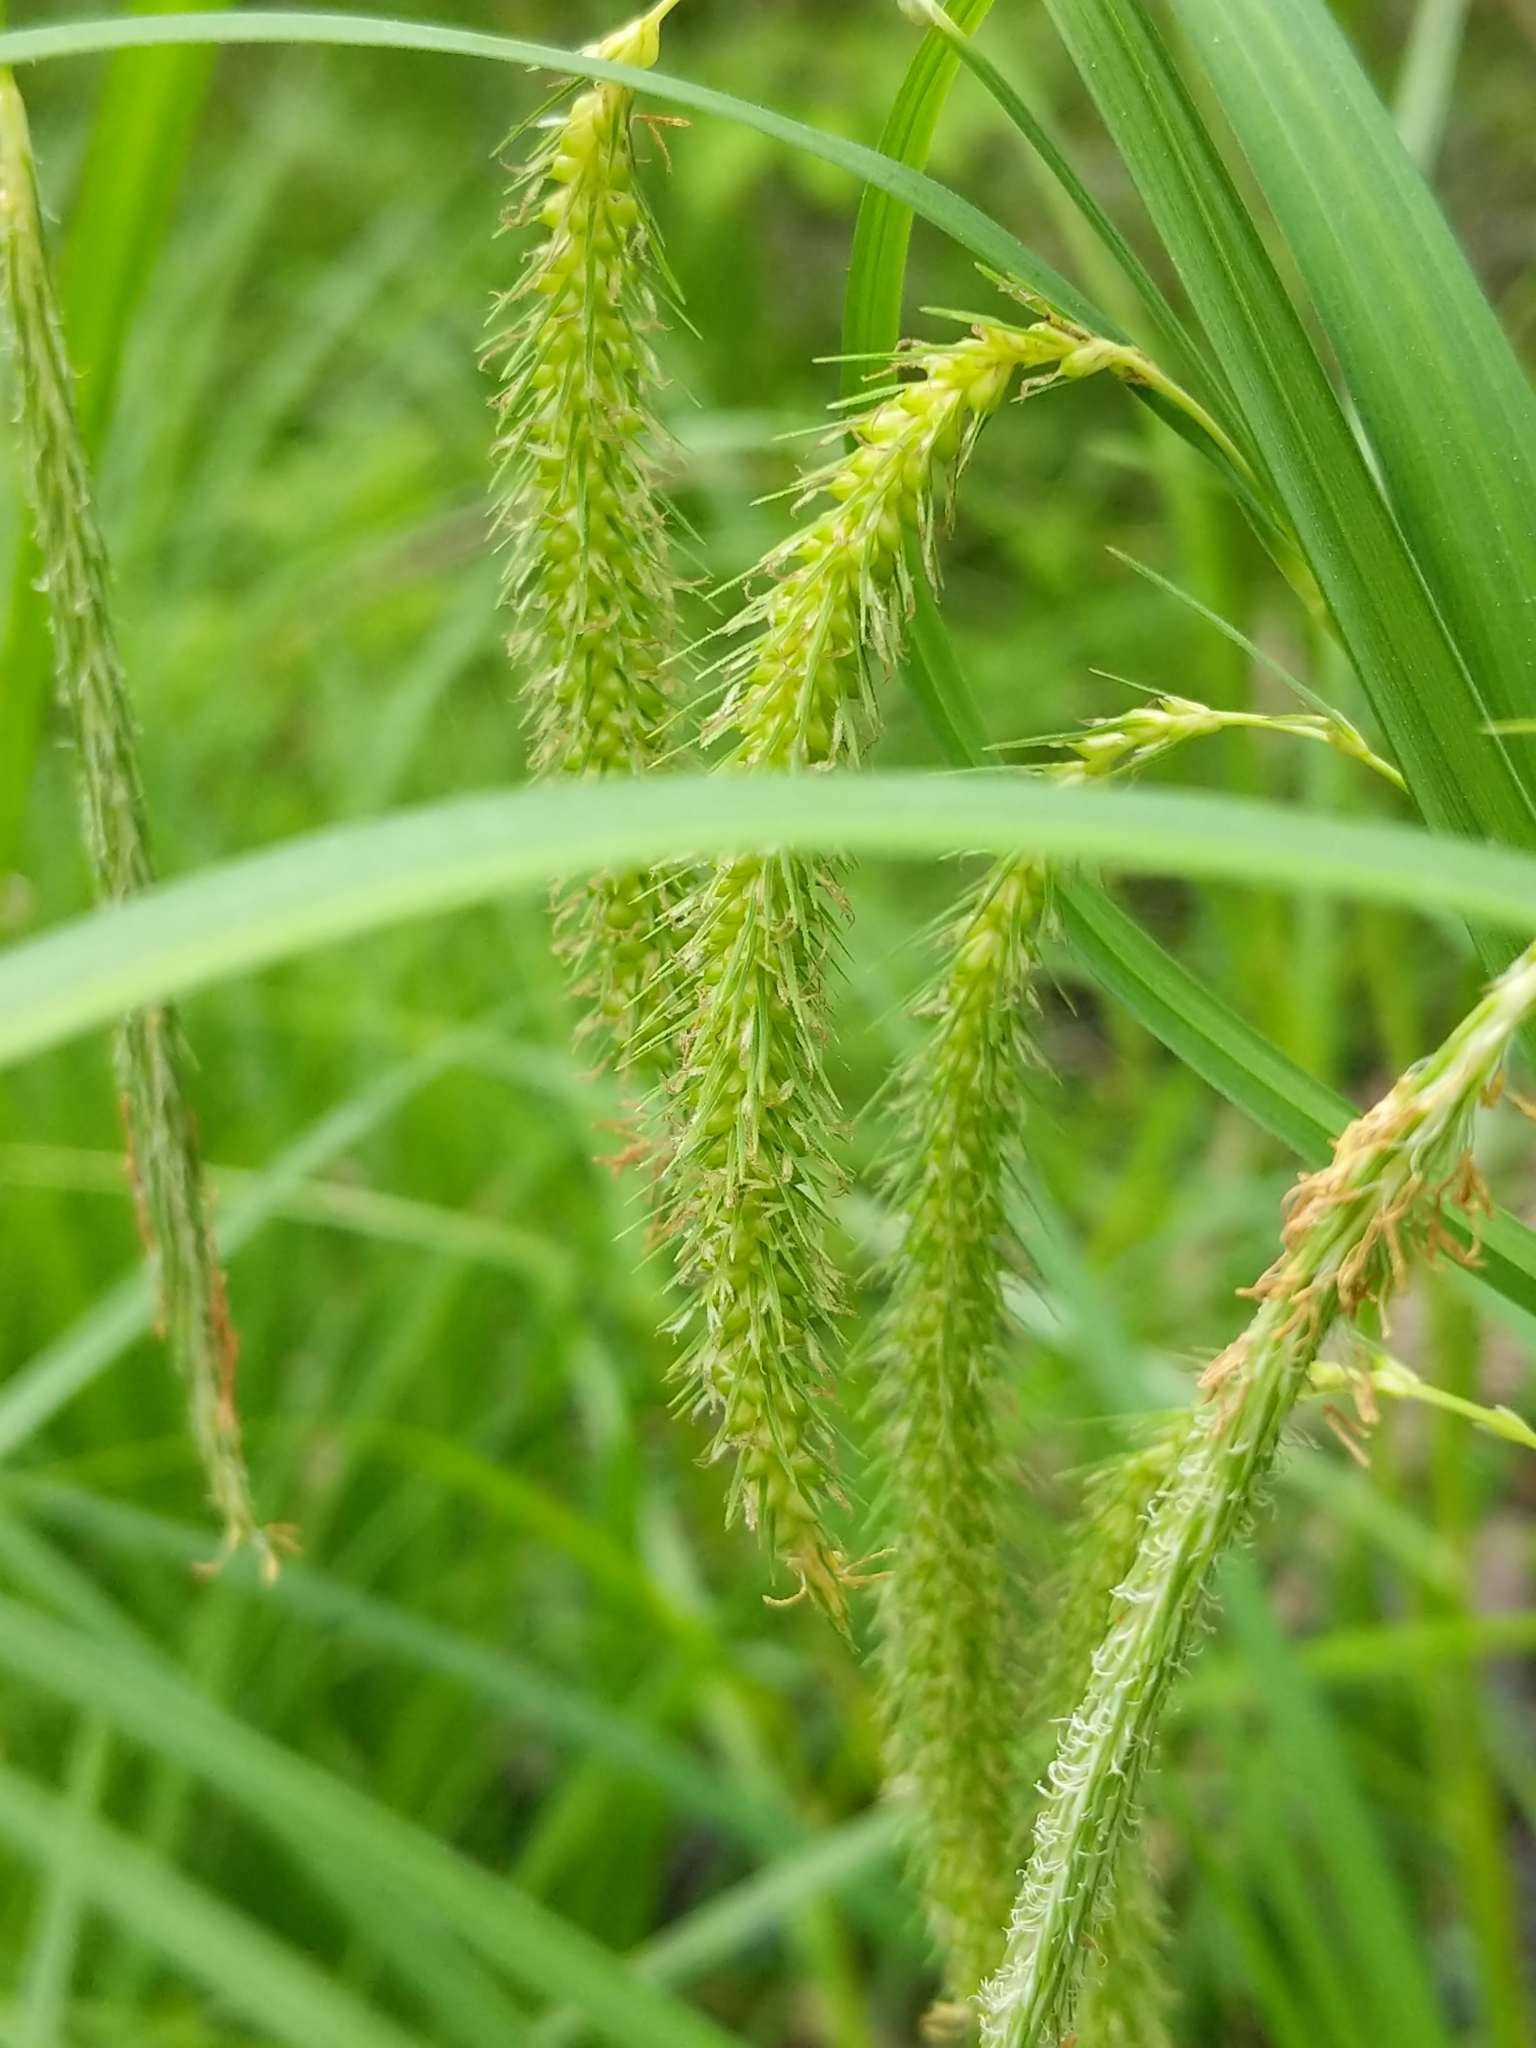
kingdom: Plantae
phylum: Tracheophyta
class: Liliopsida
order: Poales
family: Cyperaceae
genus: Carex
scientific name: Carex crinita
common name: Fringed sedge
